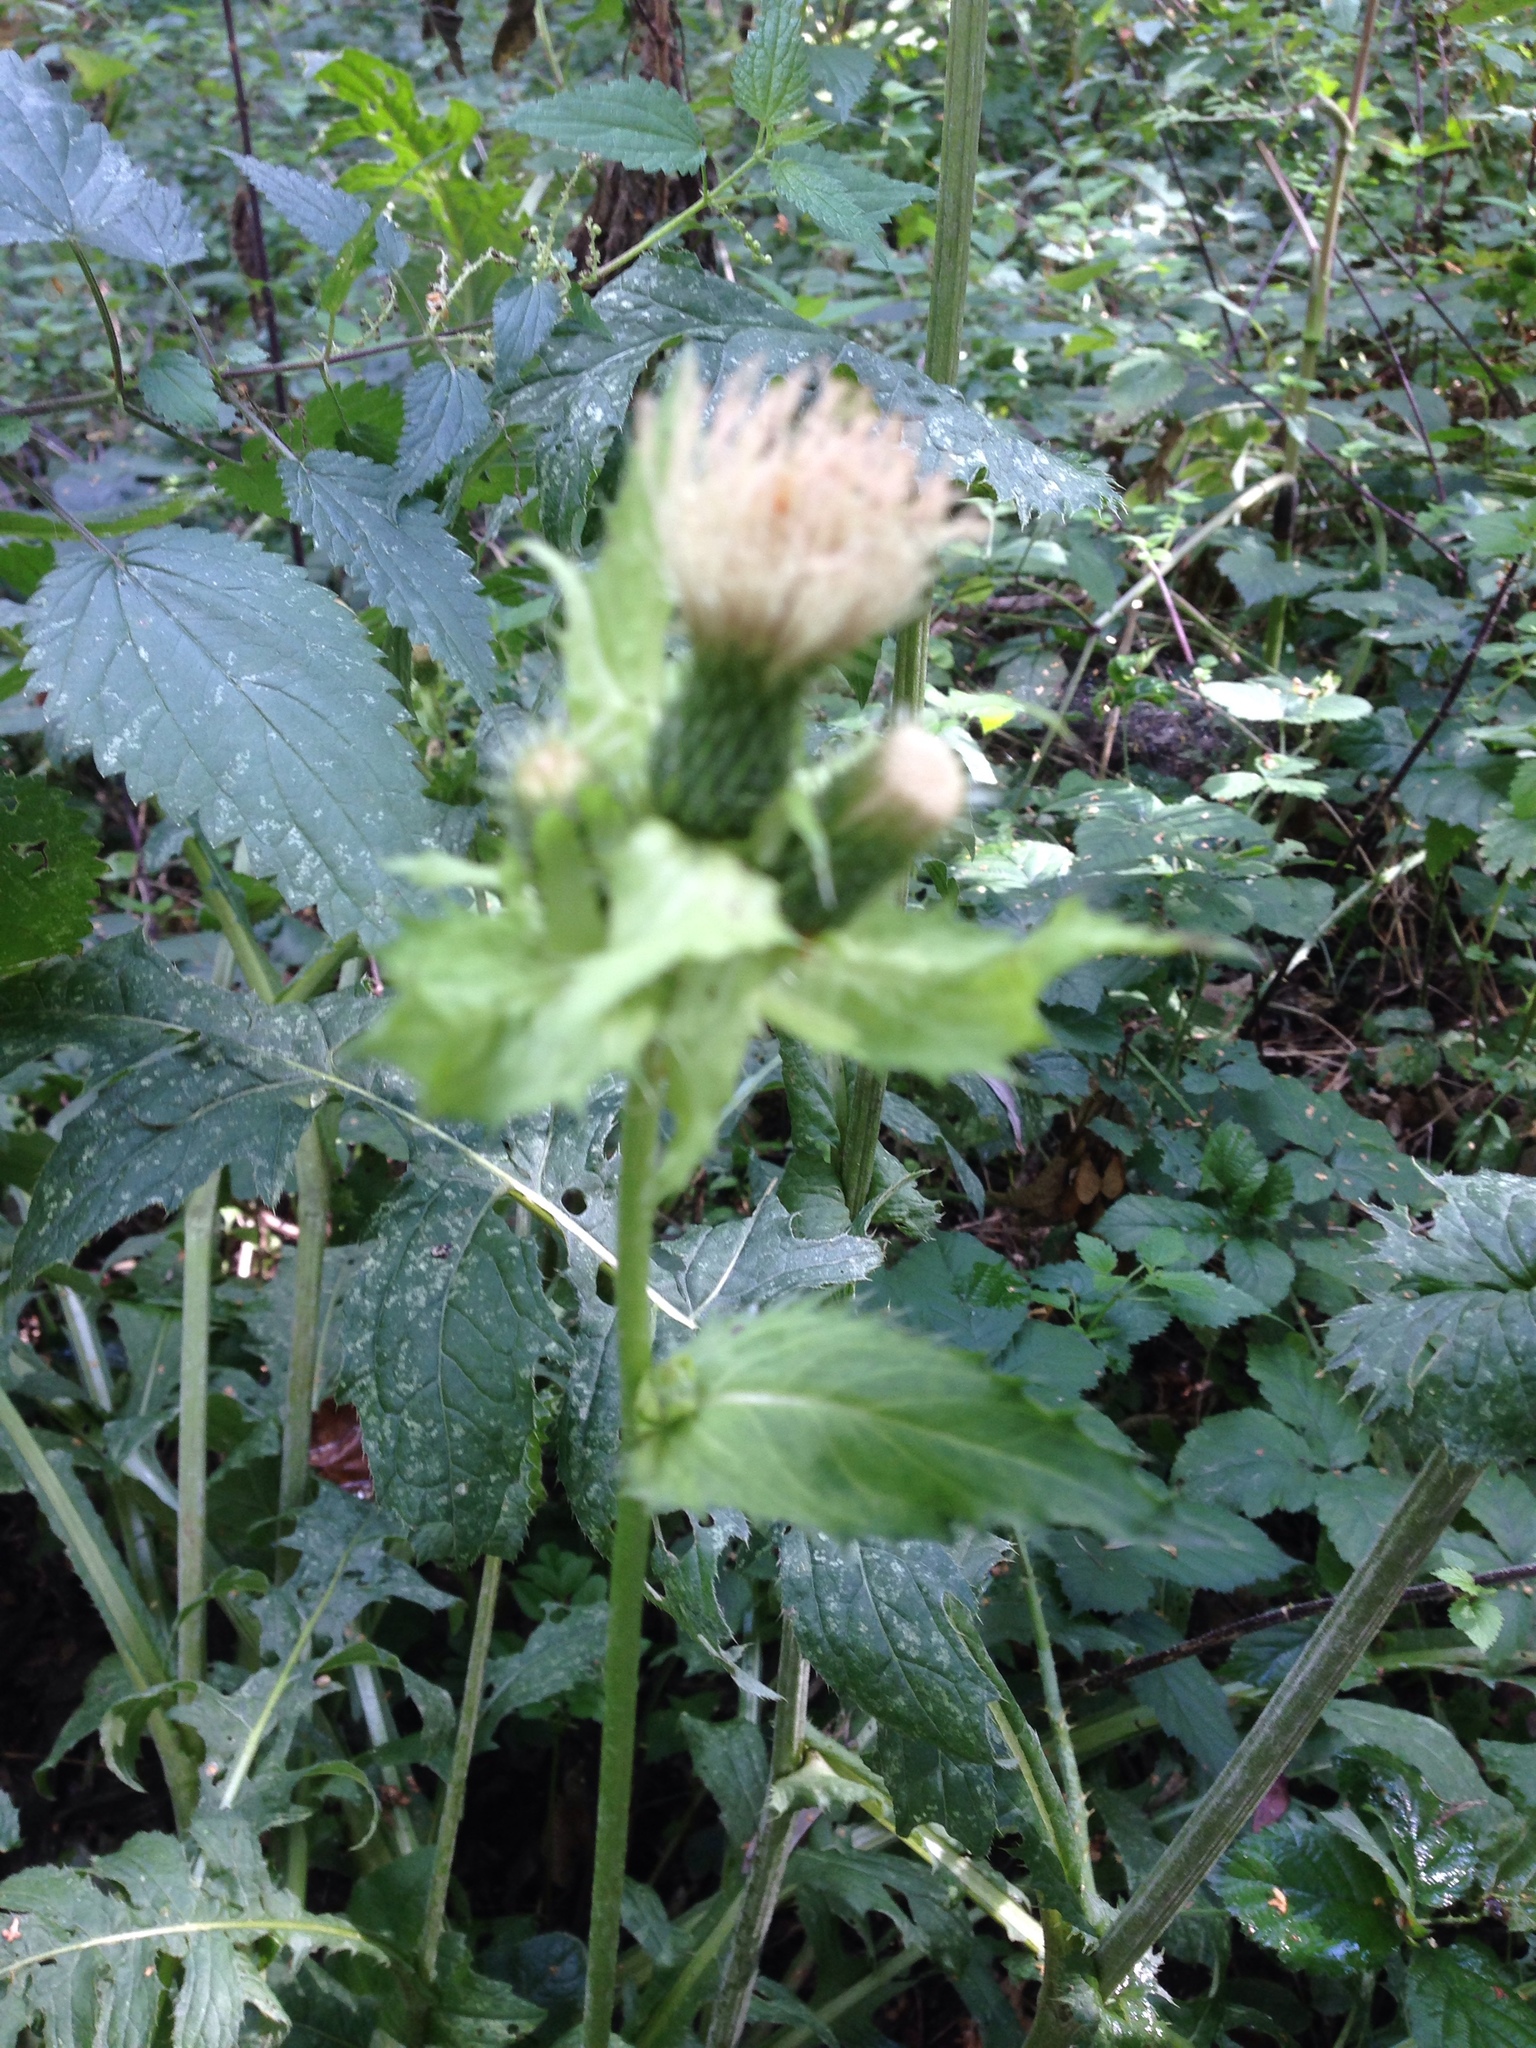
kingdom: Plantae
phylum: Tracheophyta
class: Magnoliopsida
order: Asterales
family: Asteraceae
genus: Cirsium
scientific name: Cirsium oleraceum
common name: Cabbage thistle
